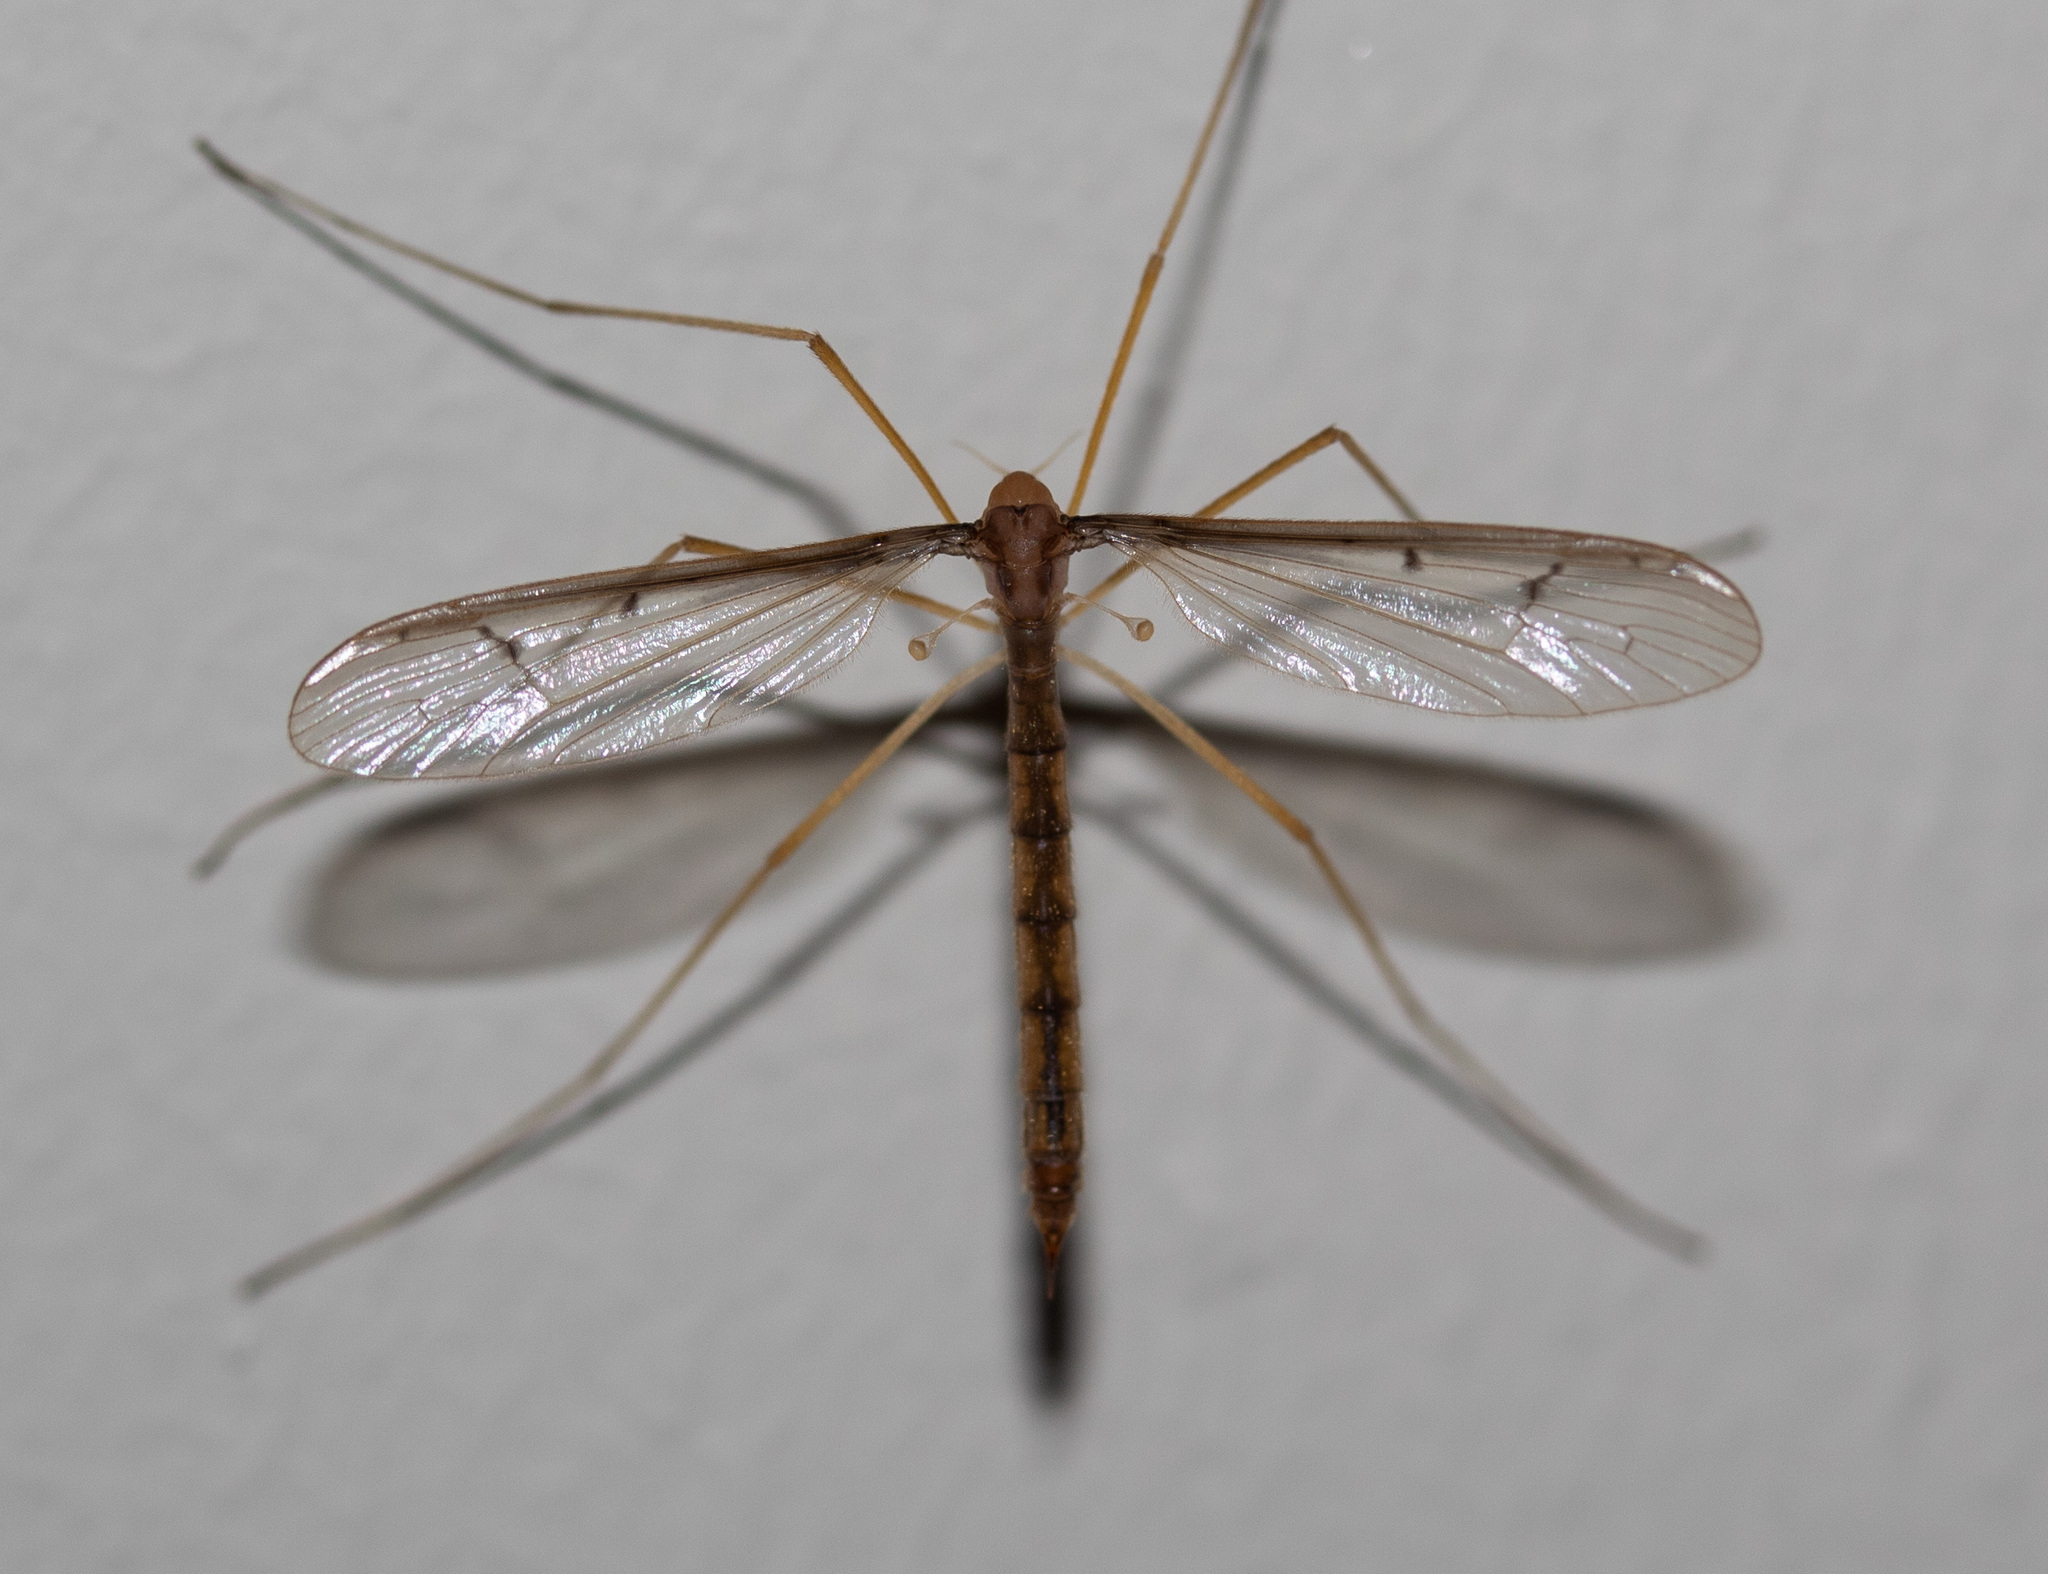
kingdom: Animalia
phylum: Arthropoda
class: Insecta
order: Diptera
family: Pediciidae
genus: Tricyphona
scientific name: Tricyphona inconstans
